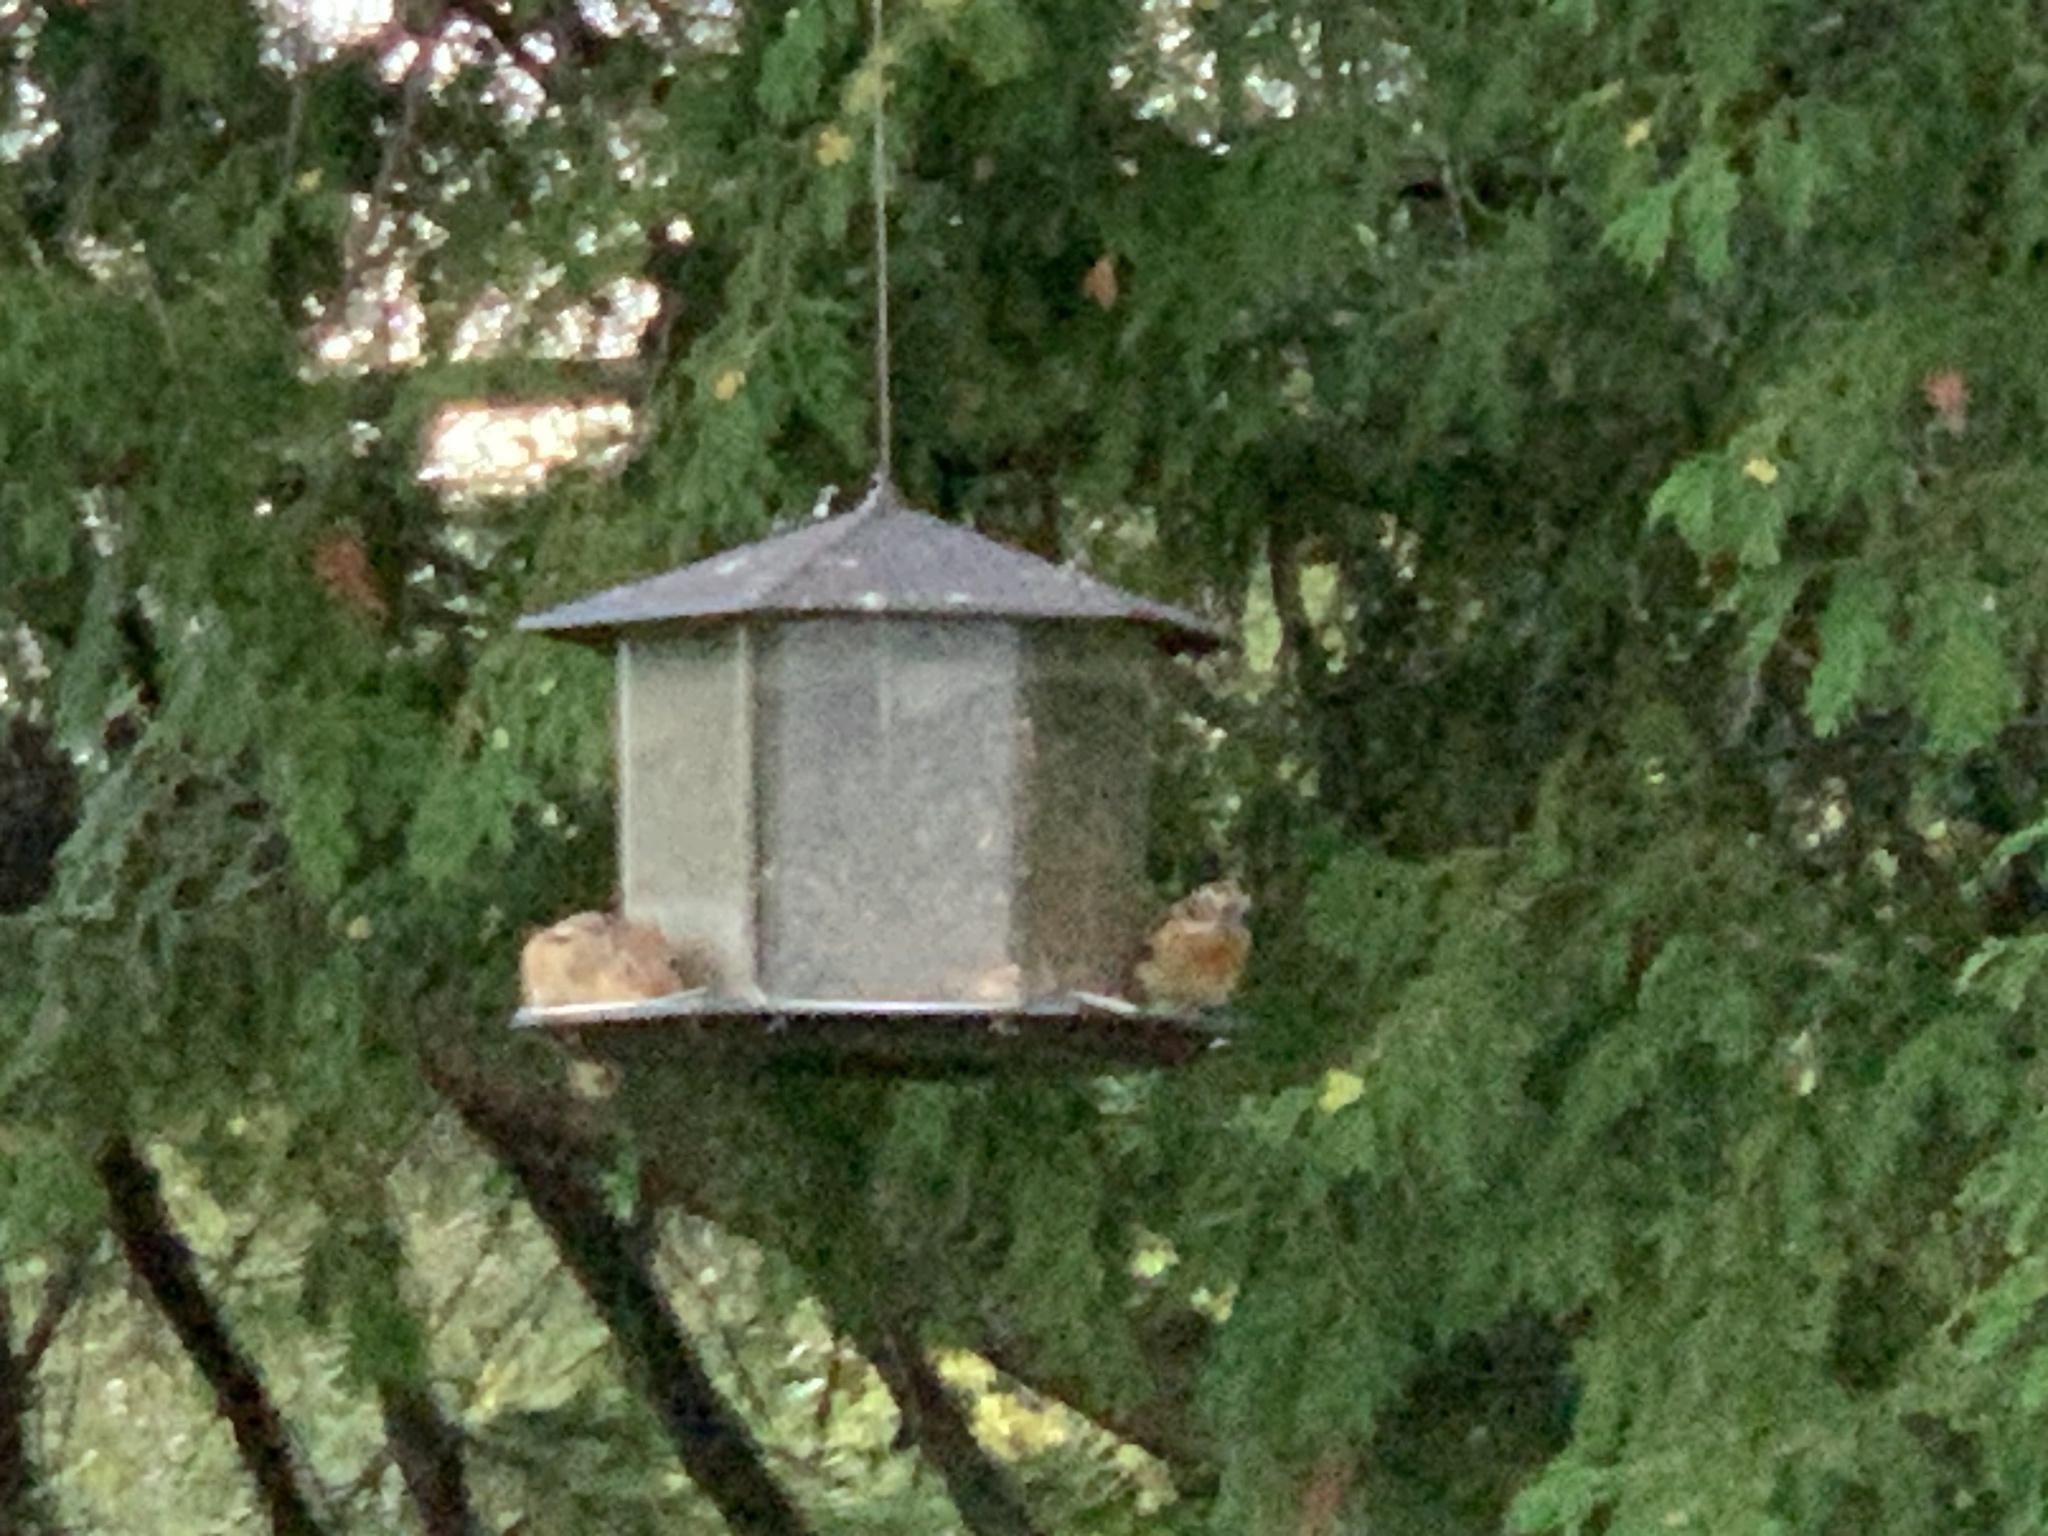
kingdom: Animalia
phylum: Chordata
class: Aves
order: Passeriformes
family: Cardinalidae
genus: Pheucticus
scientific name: Pheucticus ludovicianus
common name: Rose-breasted grosbeak
